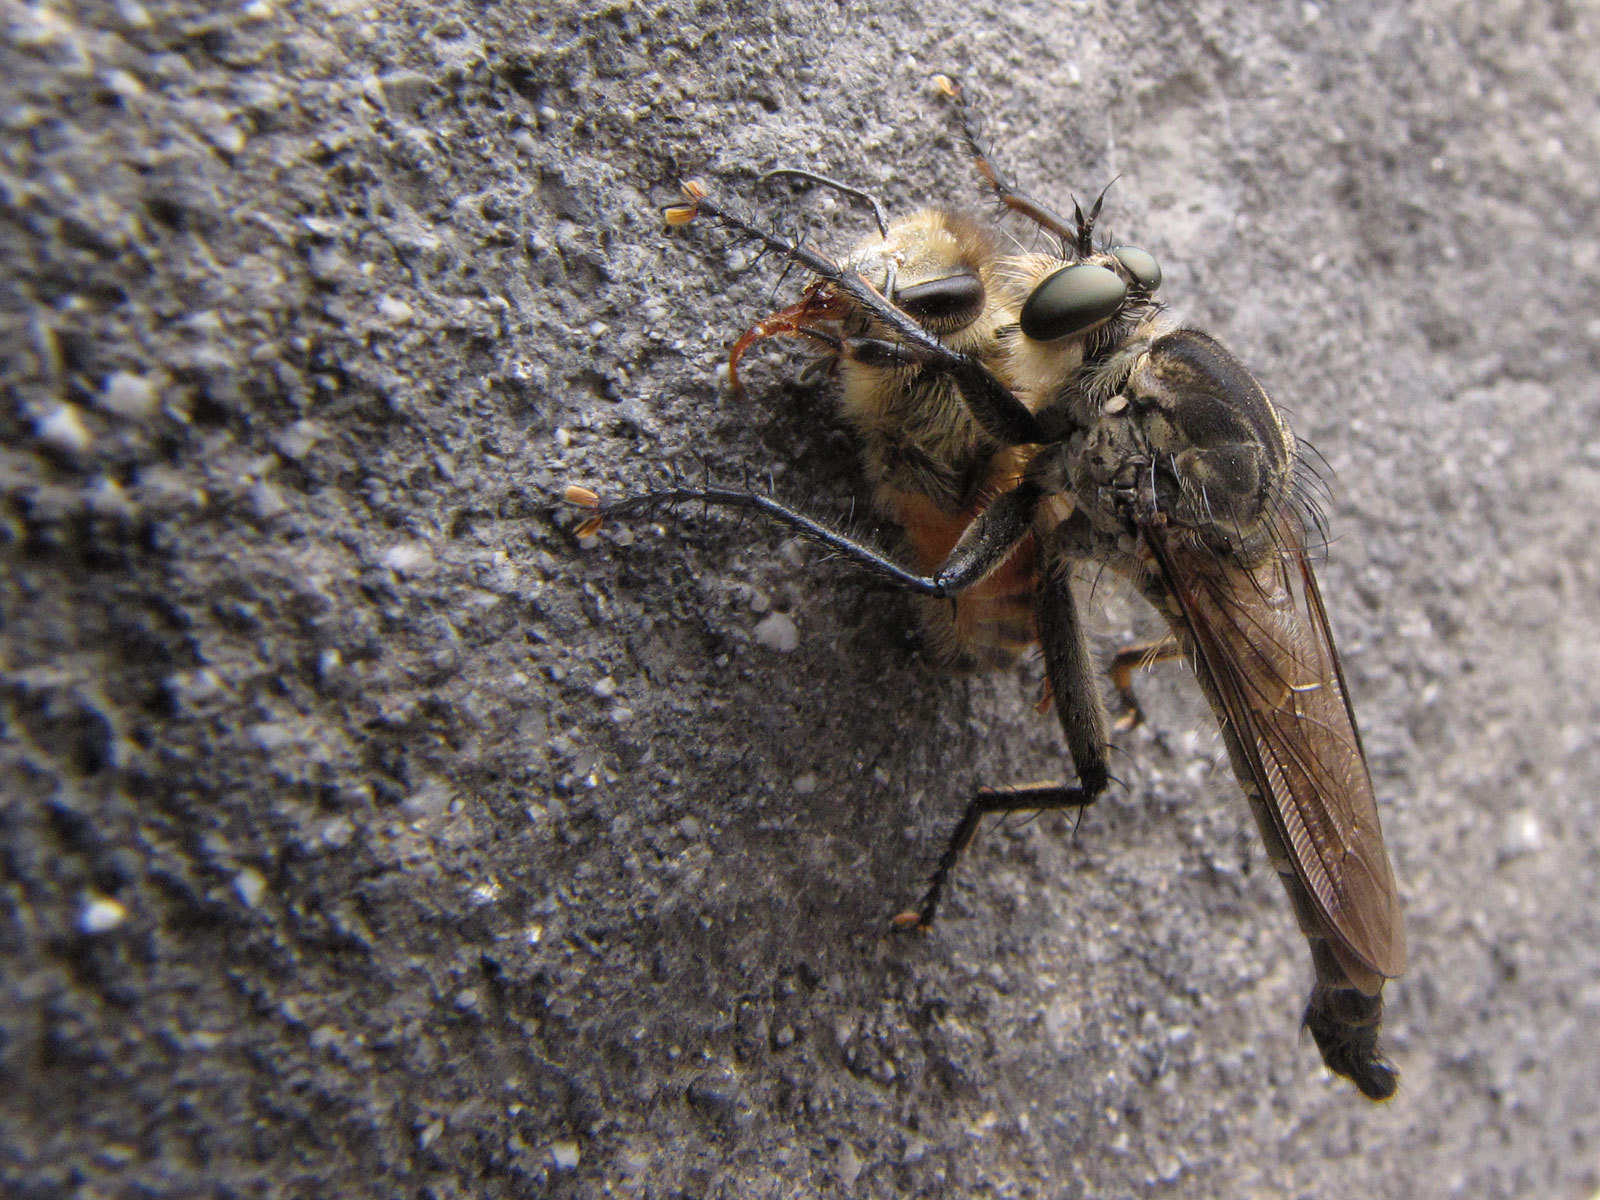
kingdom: Animalia
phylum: Arthropoda
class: Insecta
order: Hymenoptera
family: Apidae
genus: Apis
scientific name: Apis
